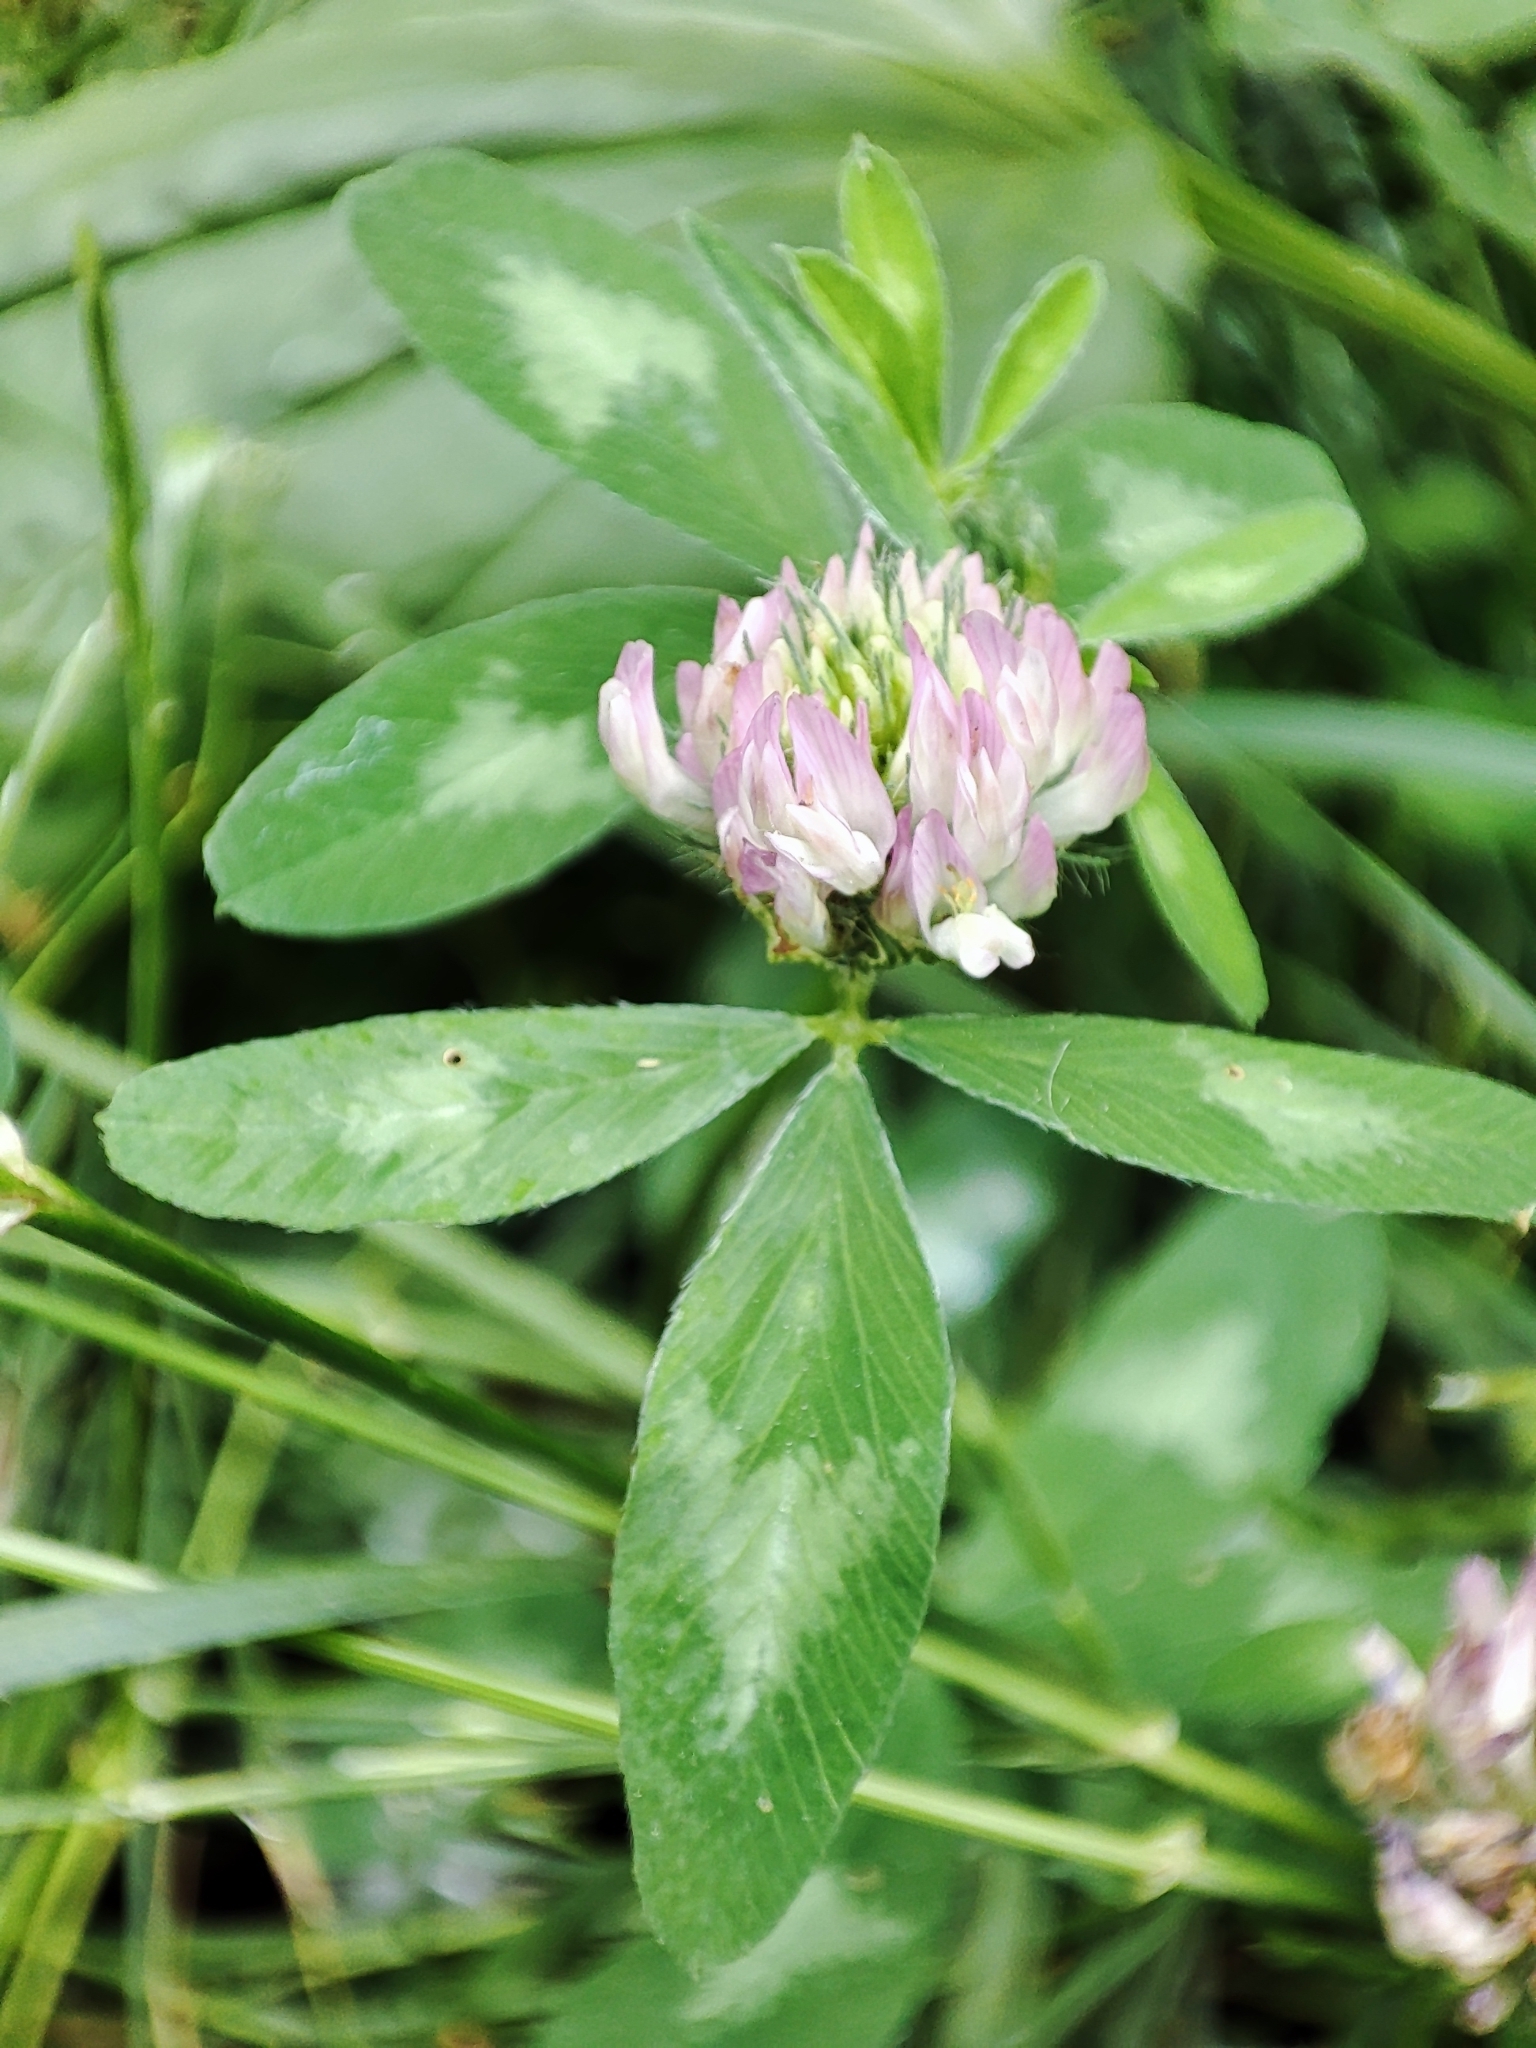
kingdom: Plantae
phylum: Tracheophyta
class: Magnoliopsida
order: Fabales
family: Fabaceae
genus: Trifolium
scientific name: Trifolium pratense
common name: Red clover
